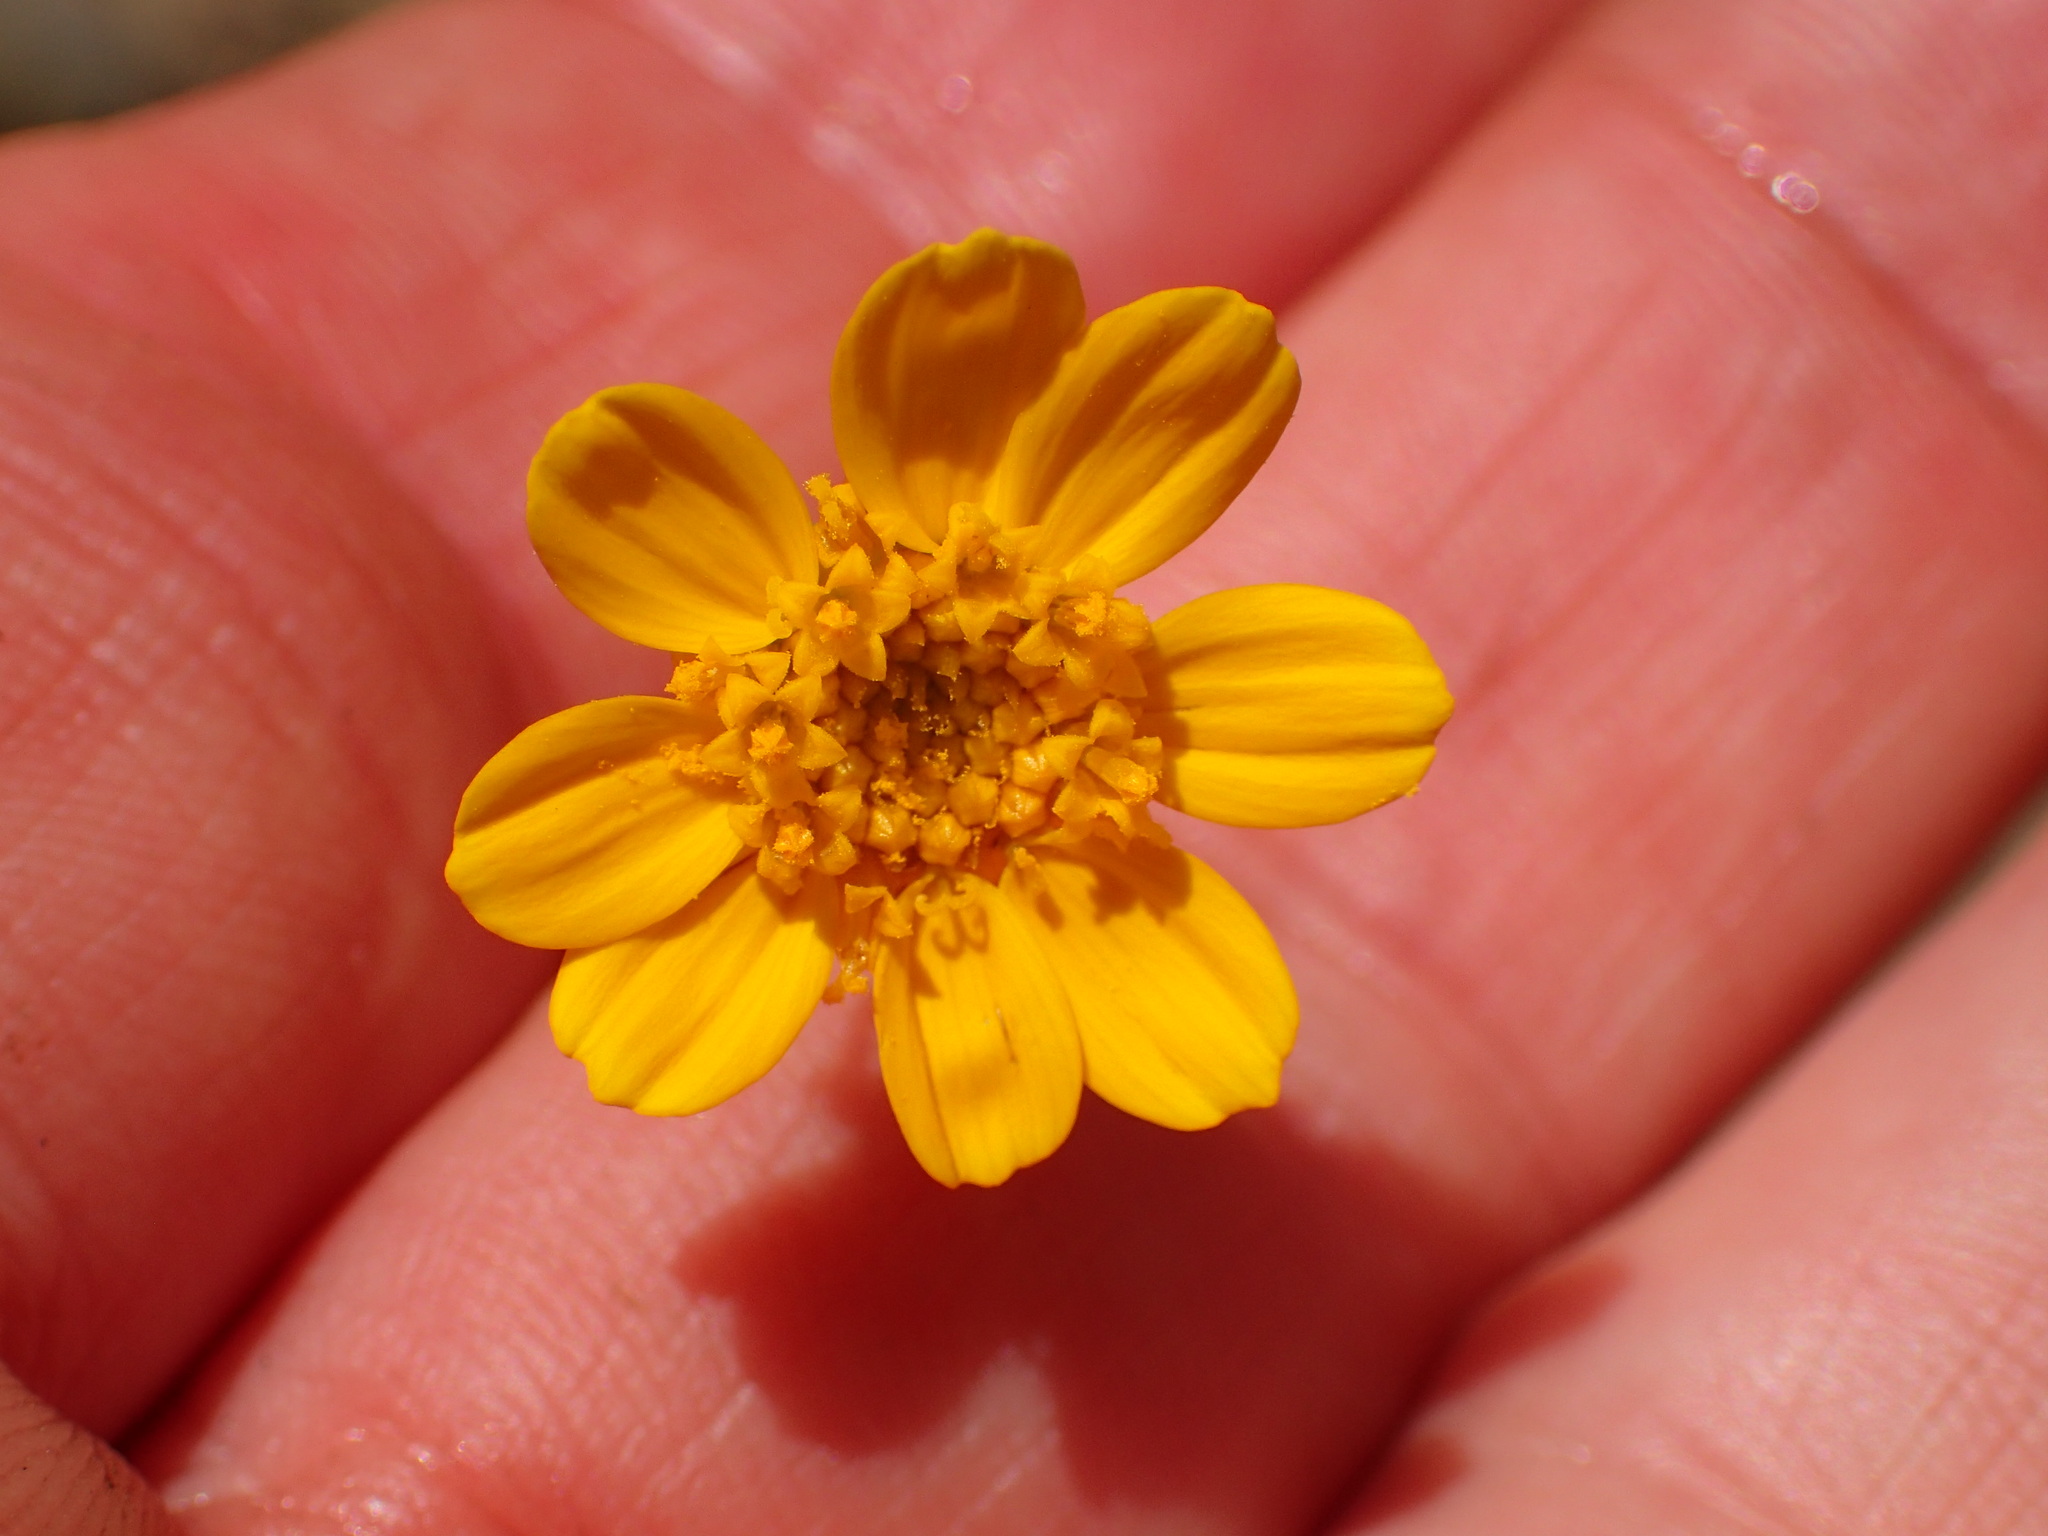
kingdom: Plantae
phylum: Tracheophyta
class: Magnoliopsida
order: Asterales
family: Asteraceae
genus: Coreopsis
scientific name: Coreopsis bigelovii
